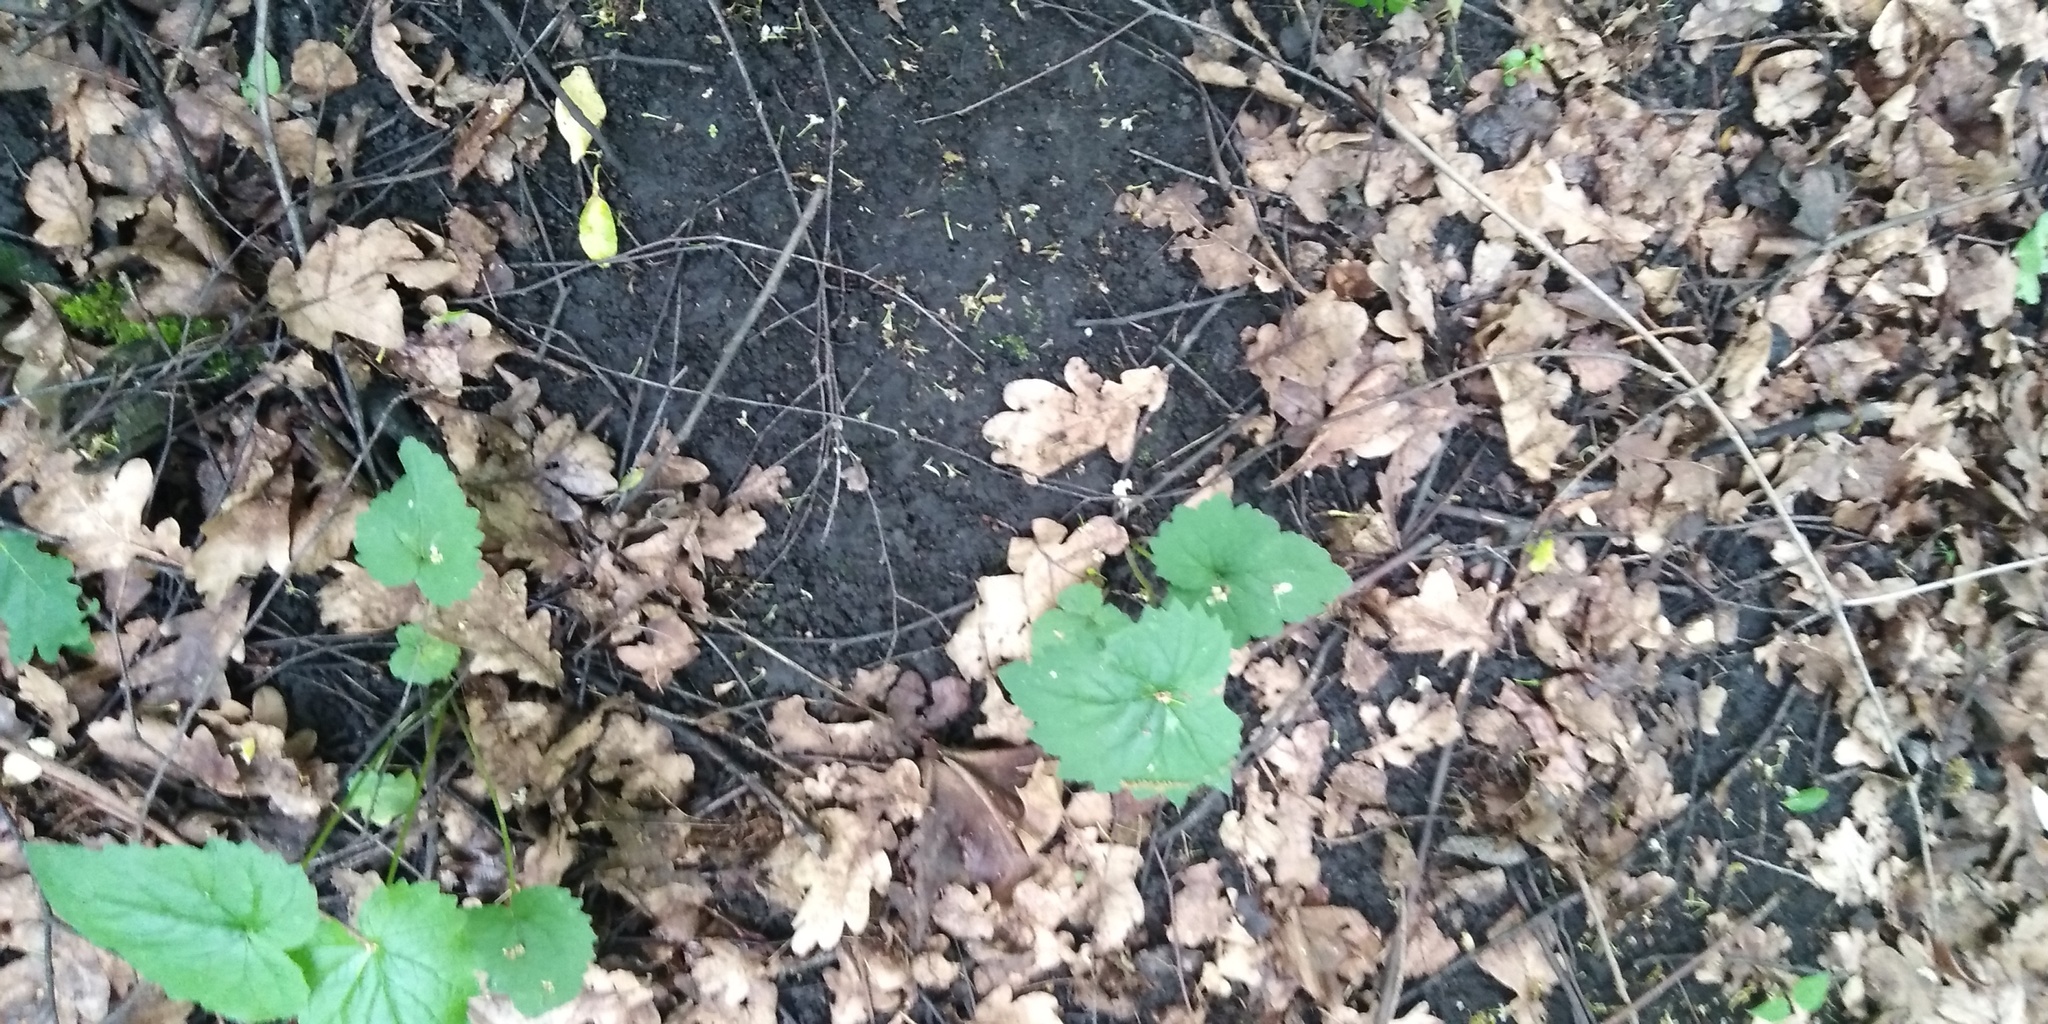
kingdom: Plantae
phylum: Tracheophyta
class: Magnoliopsida
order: Asterales
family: Campanulaceae
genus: Campanula
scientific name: Campanula trachelium
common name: Nettle-leaved bellflower
